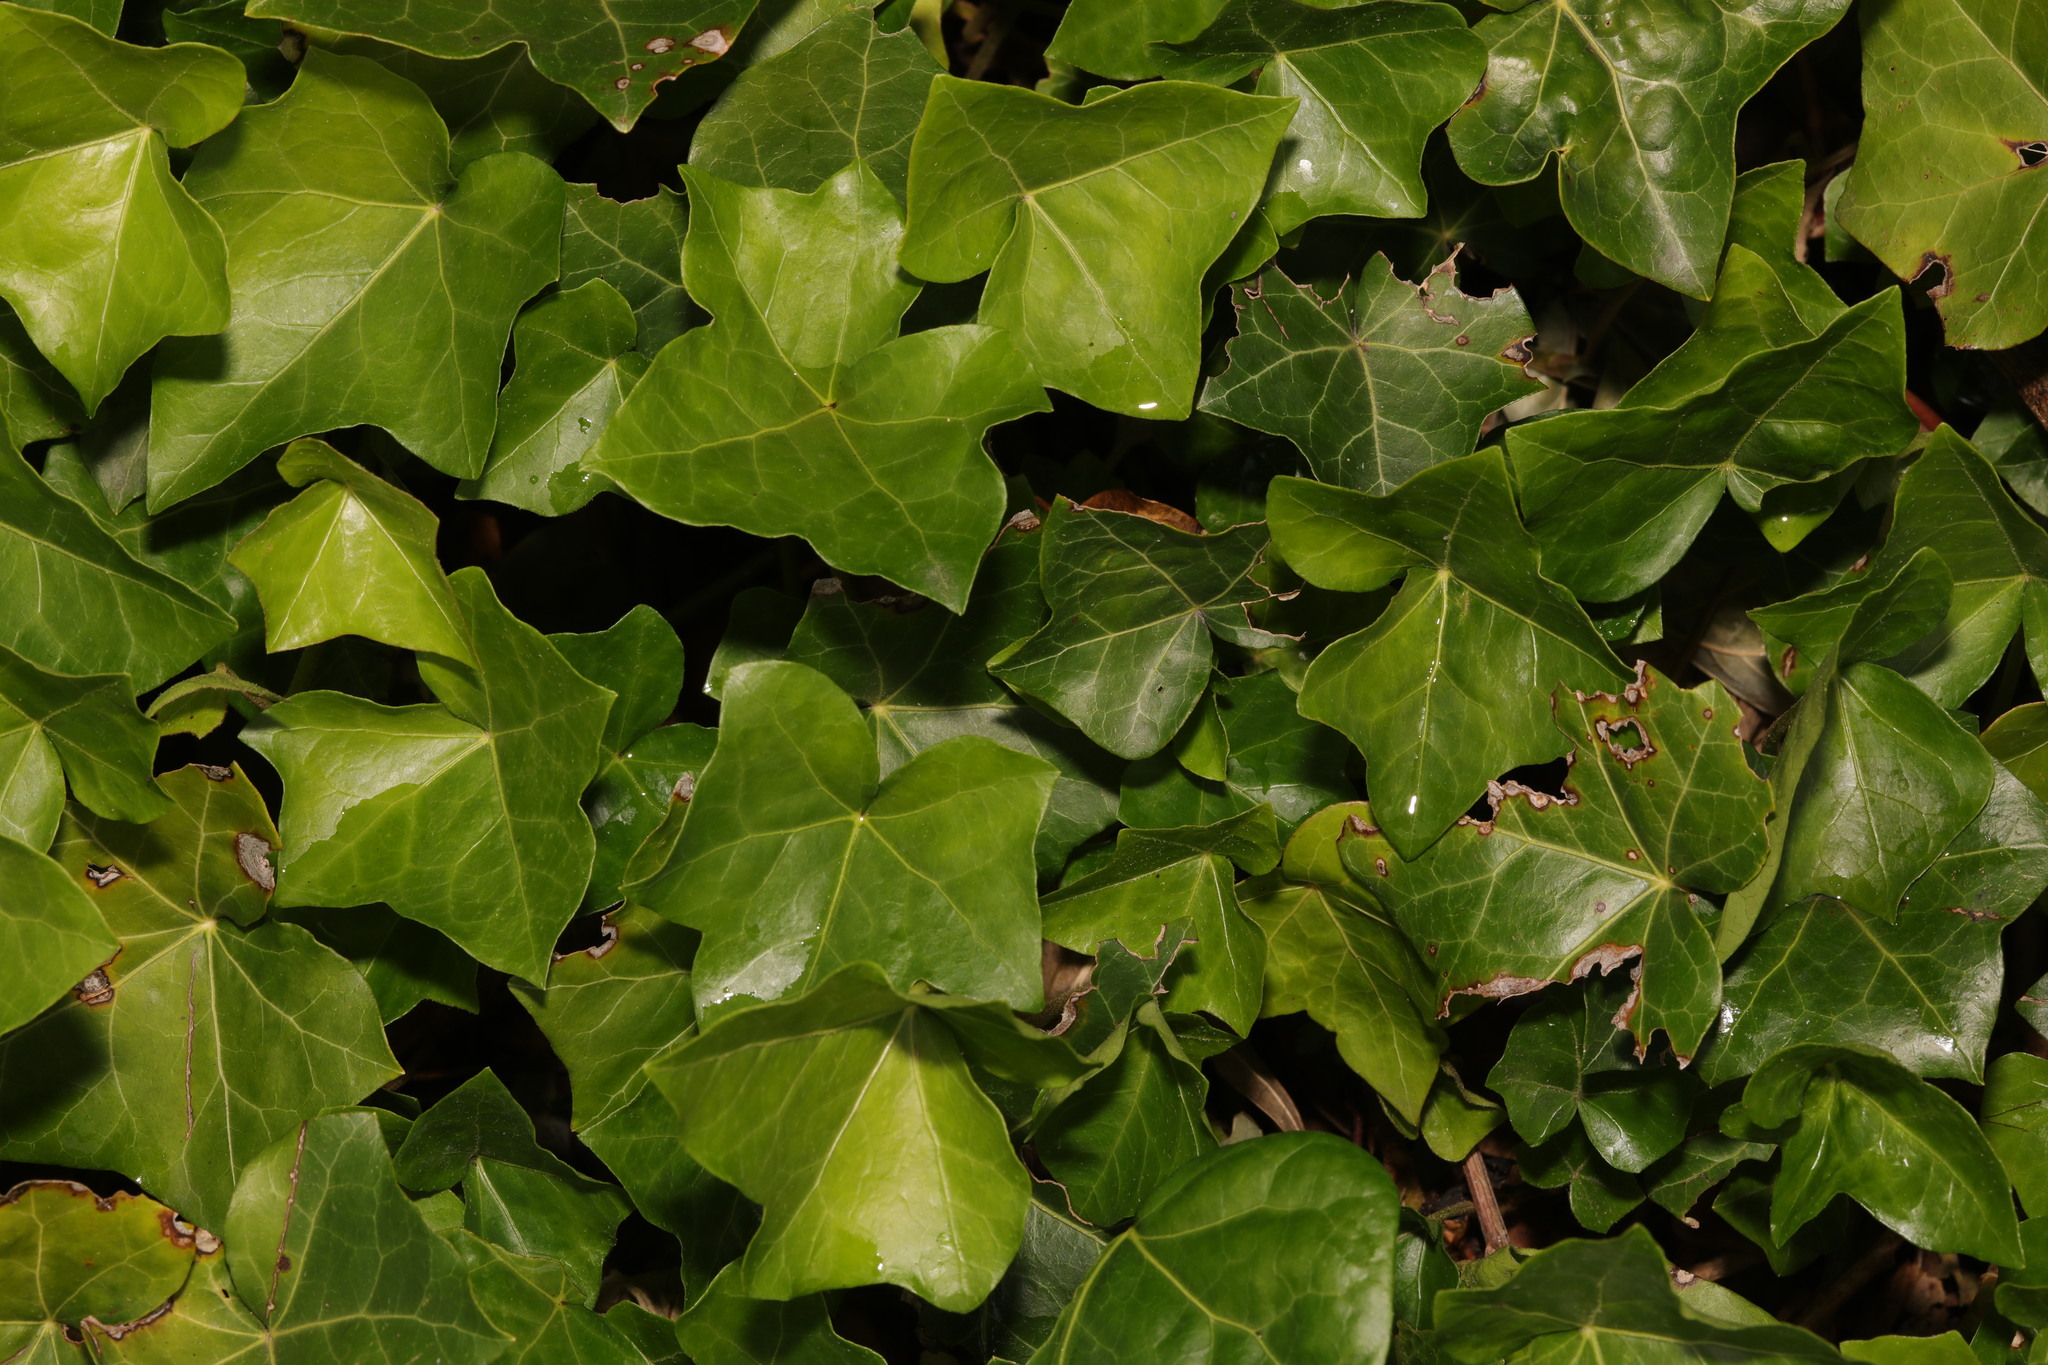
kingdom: Plantae
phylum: Tracheophyta
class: Magnoliopsida
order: Apiales
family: Araliaceae
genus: Hedera
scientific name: Hedera helix
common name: Ivy
